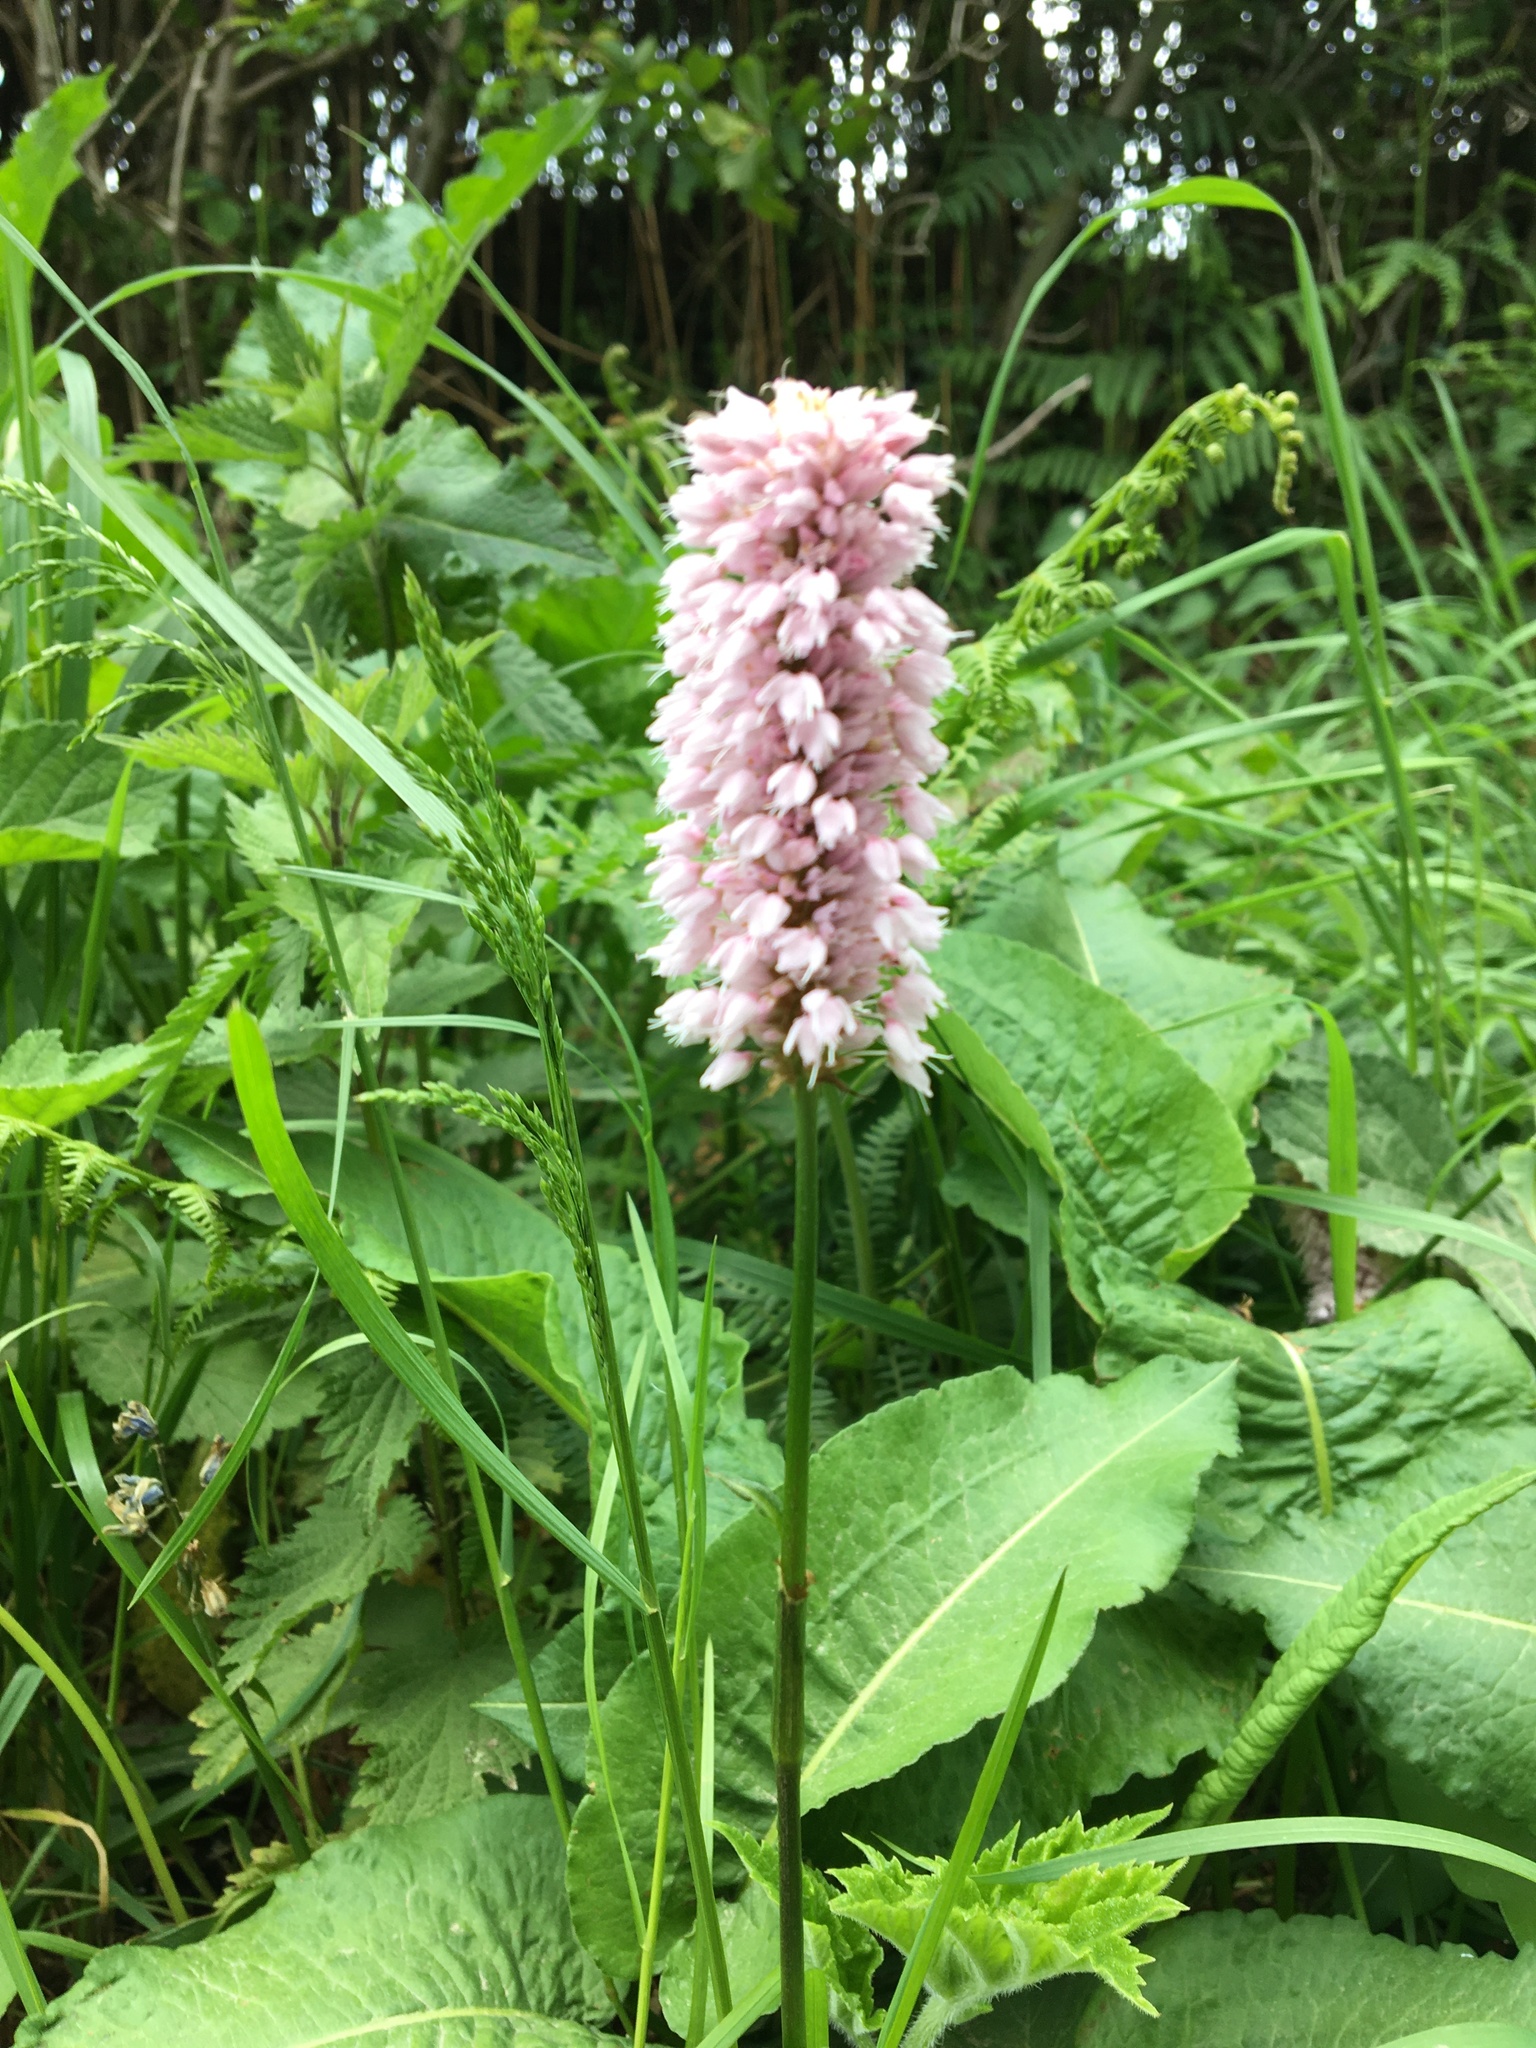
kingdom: Plantae
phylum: Tracheophyta
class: Magnoliopsida
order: Caryophyllales
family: Polygonaceae
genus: Bistorta
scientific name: Bistorta officinalis
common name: Common bistort
